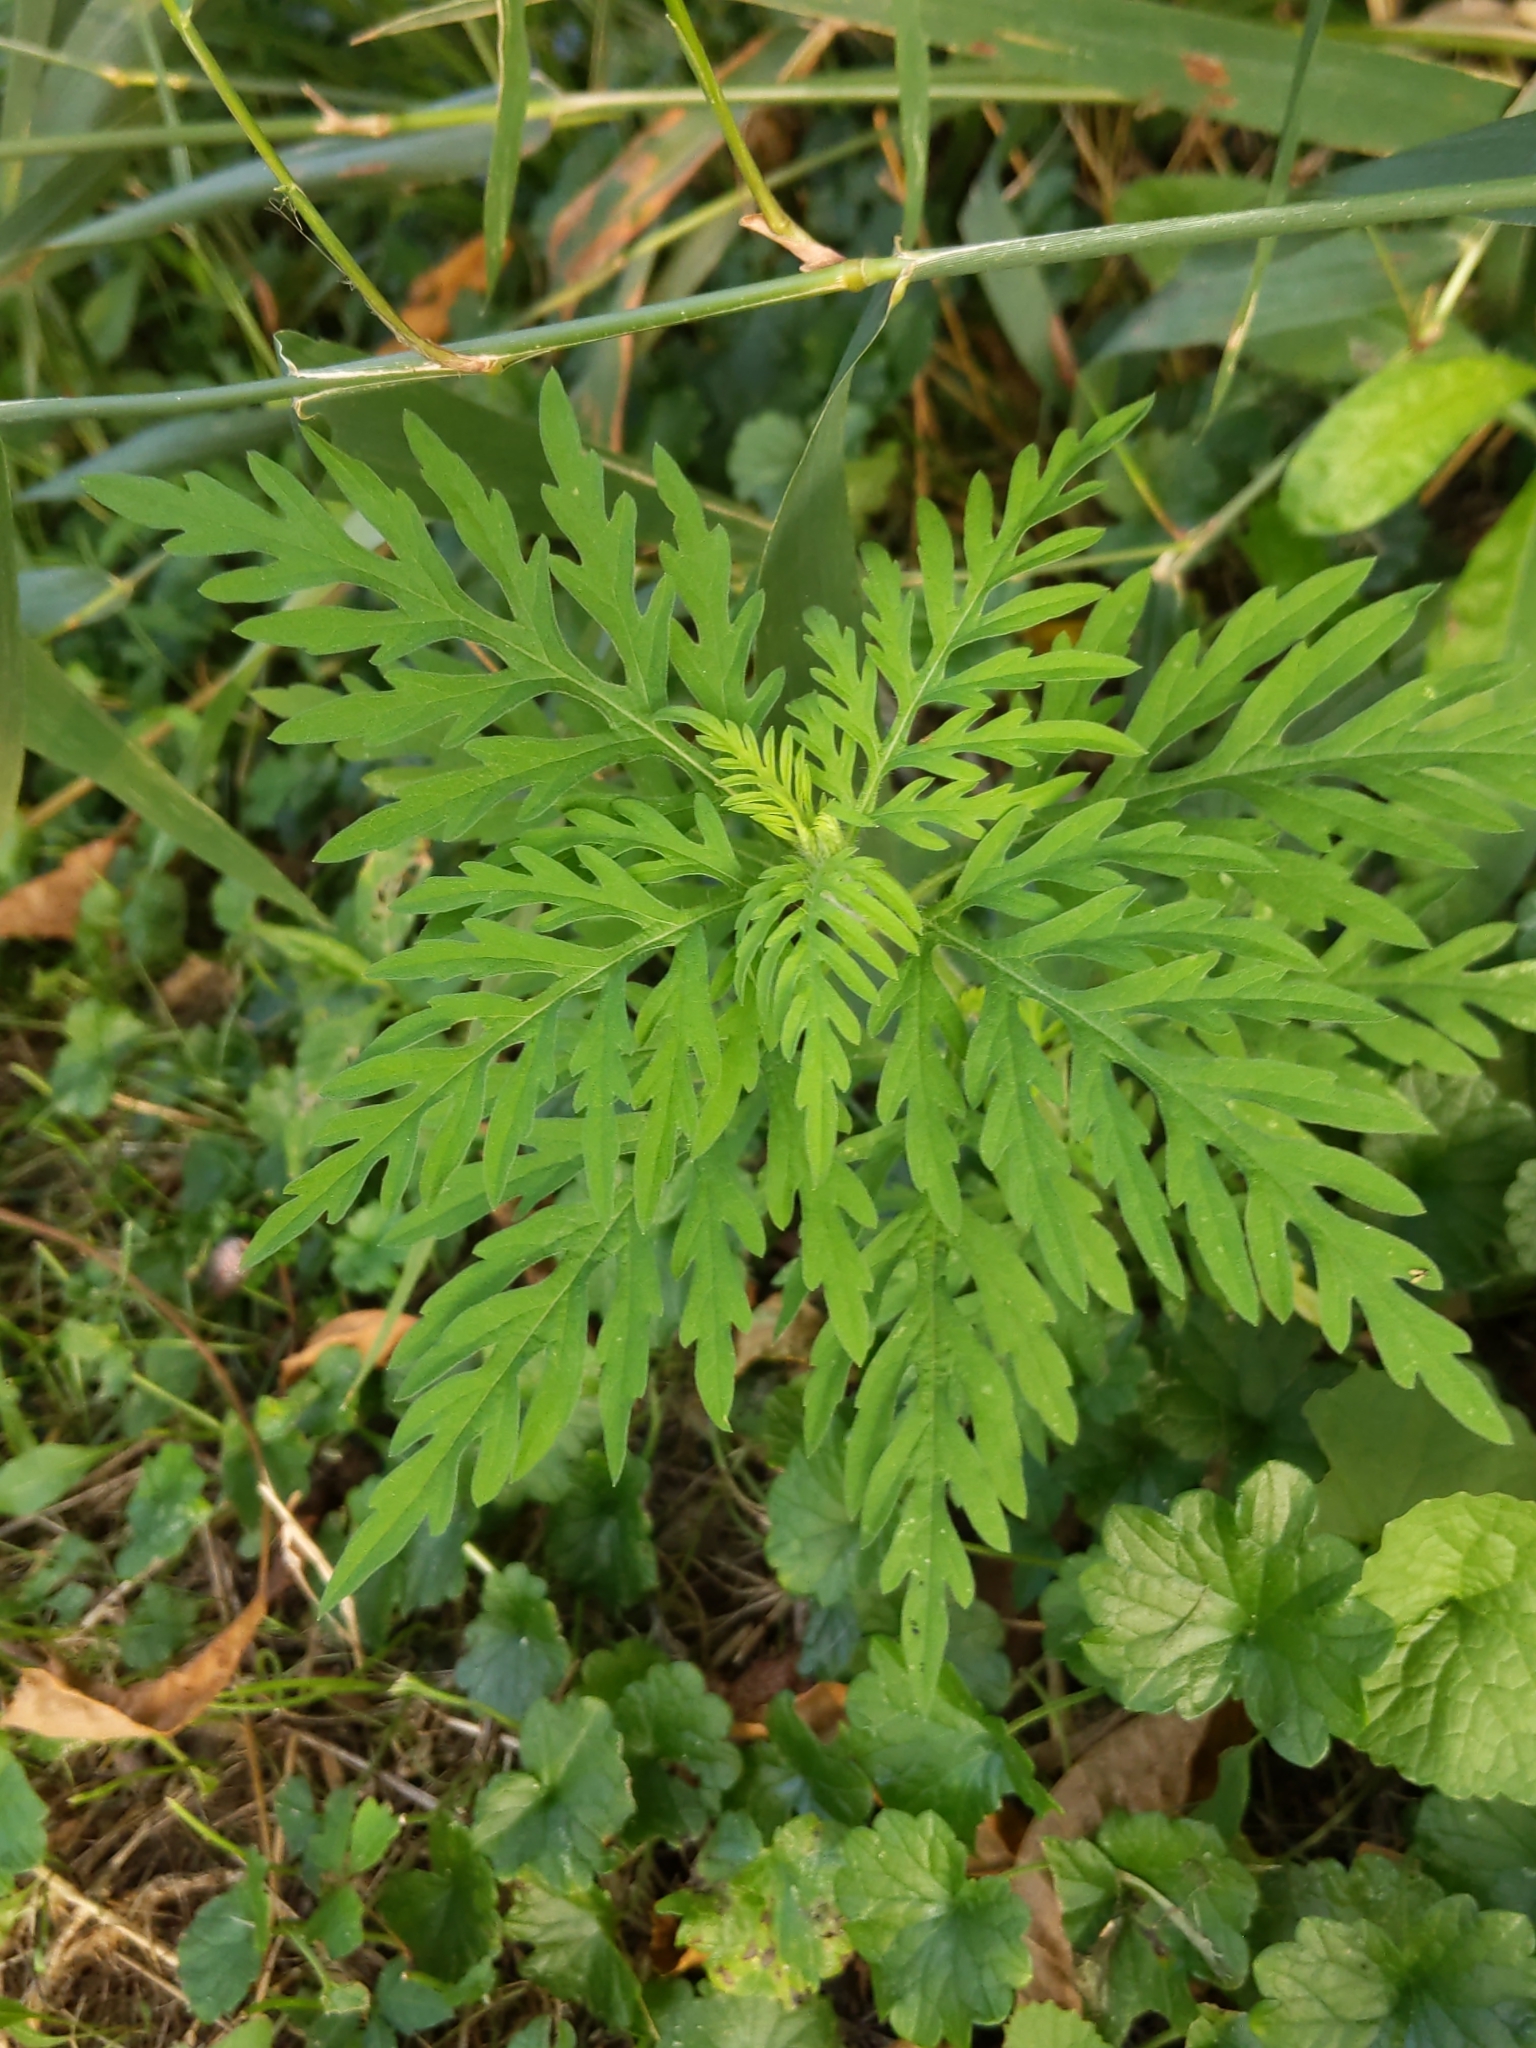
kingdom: Plantae
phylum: Tracheophyta
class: Magnoliopsida
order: Asterales
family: Asteraceae
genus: Ambrosia
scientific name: Ambrosia artemisiifolia
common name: Annual ragweed
